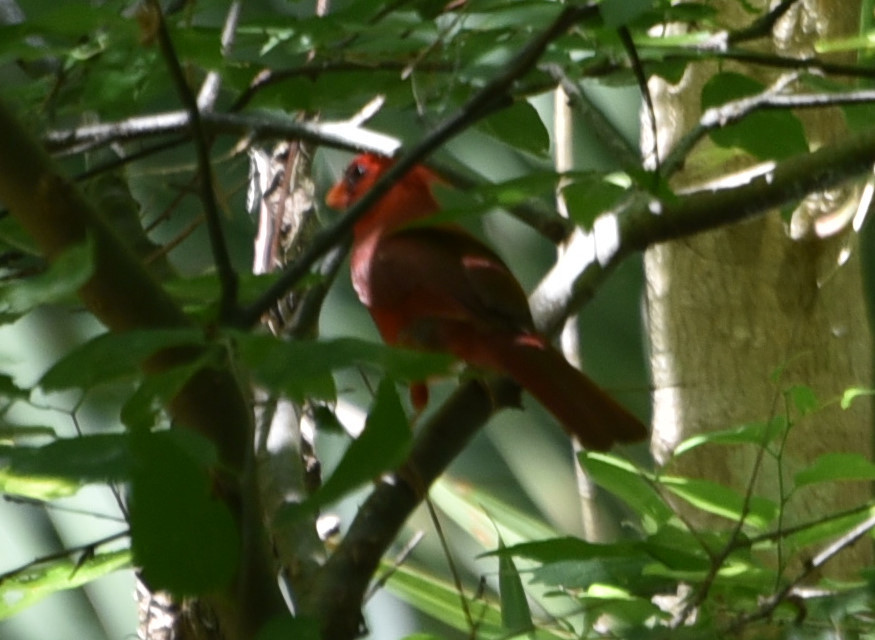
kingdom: Animalia
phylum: Chordata
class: Aves
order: Passeriformes
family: Cardinalidae
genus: Cardinalis
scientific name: Cardinalis cardinalis
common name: Northern cardinal
